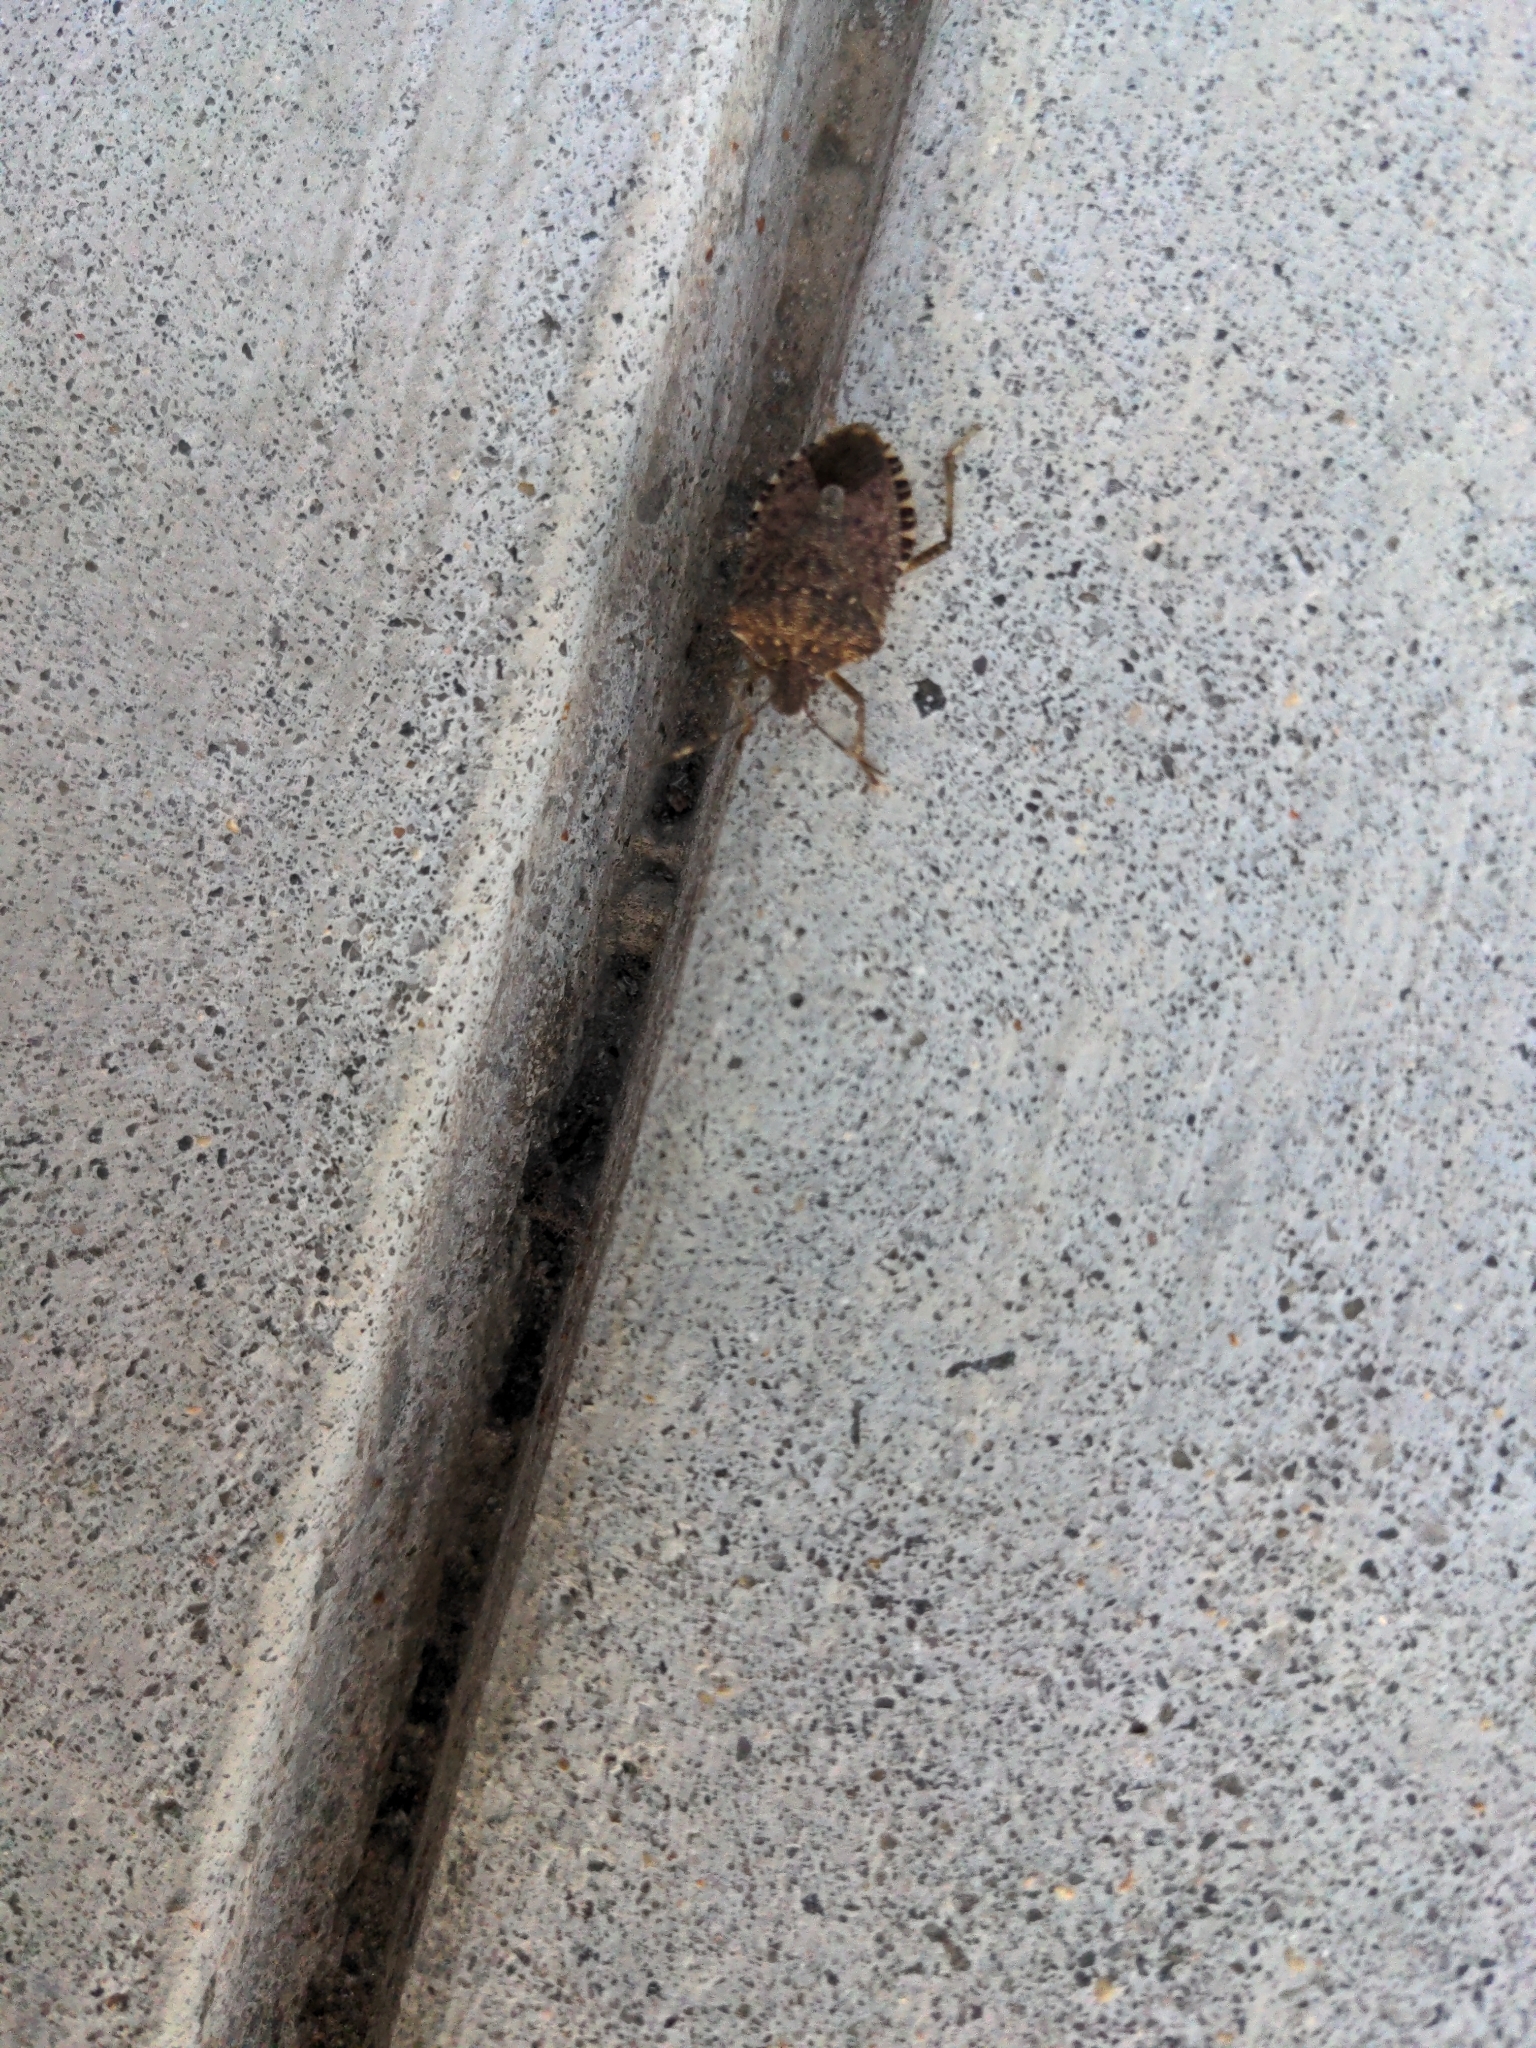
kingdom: Animalia
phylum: Arthropoda
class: Insecta
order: Hemiptera
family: Pentatomidae
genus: Halyomorpha
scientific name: Halyomorpha halys
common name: Brown marmorated stink bug
